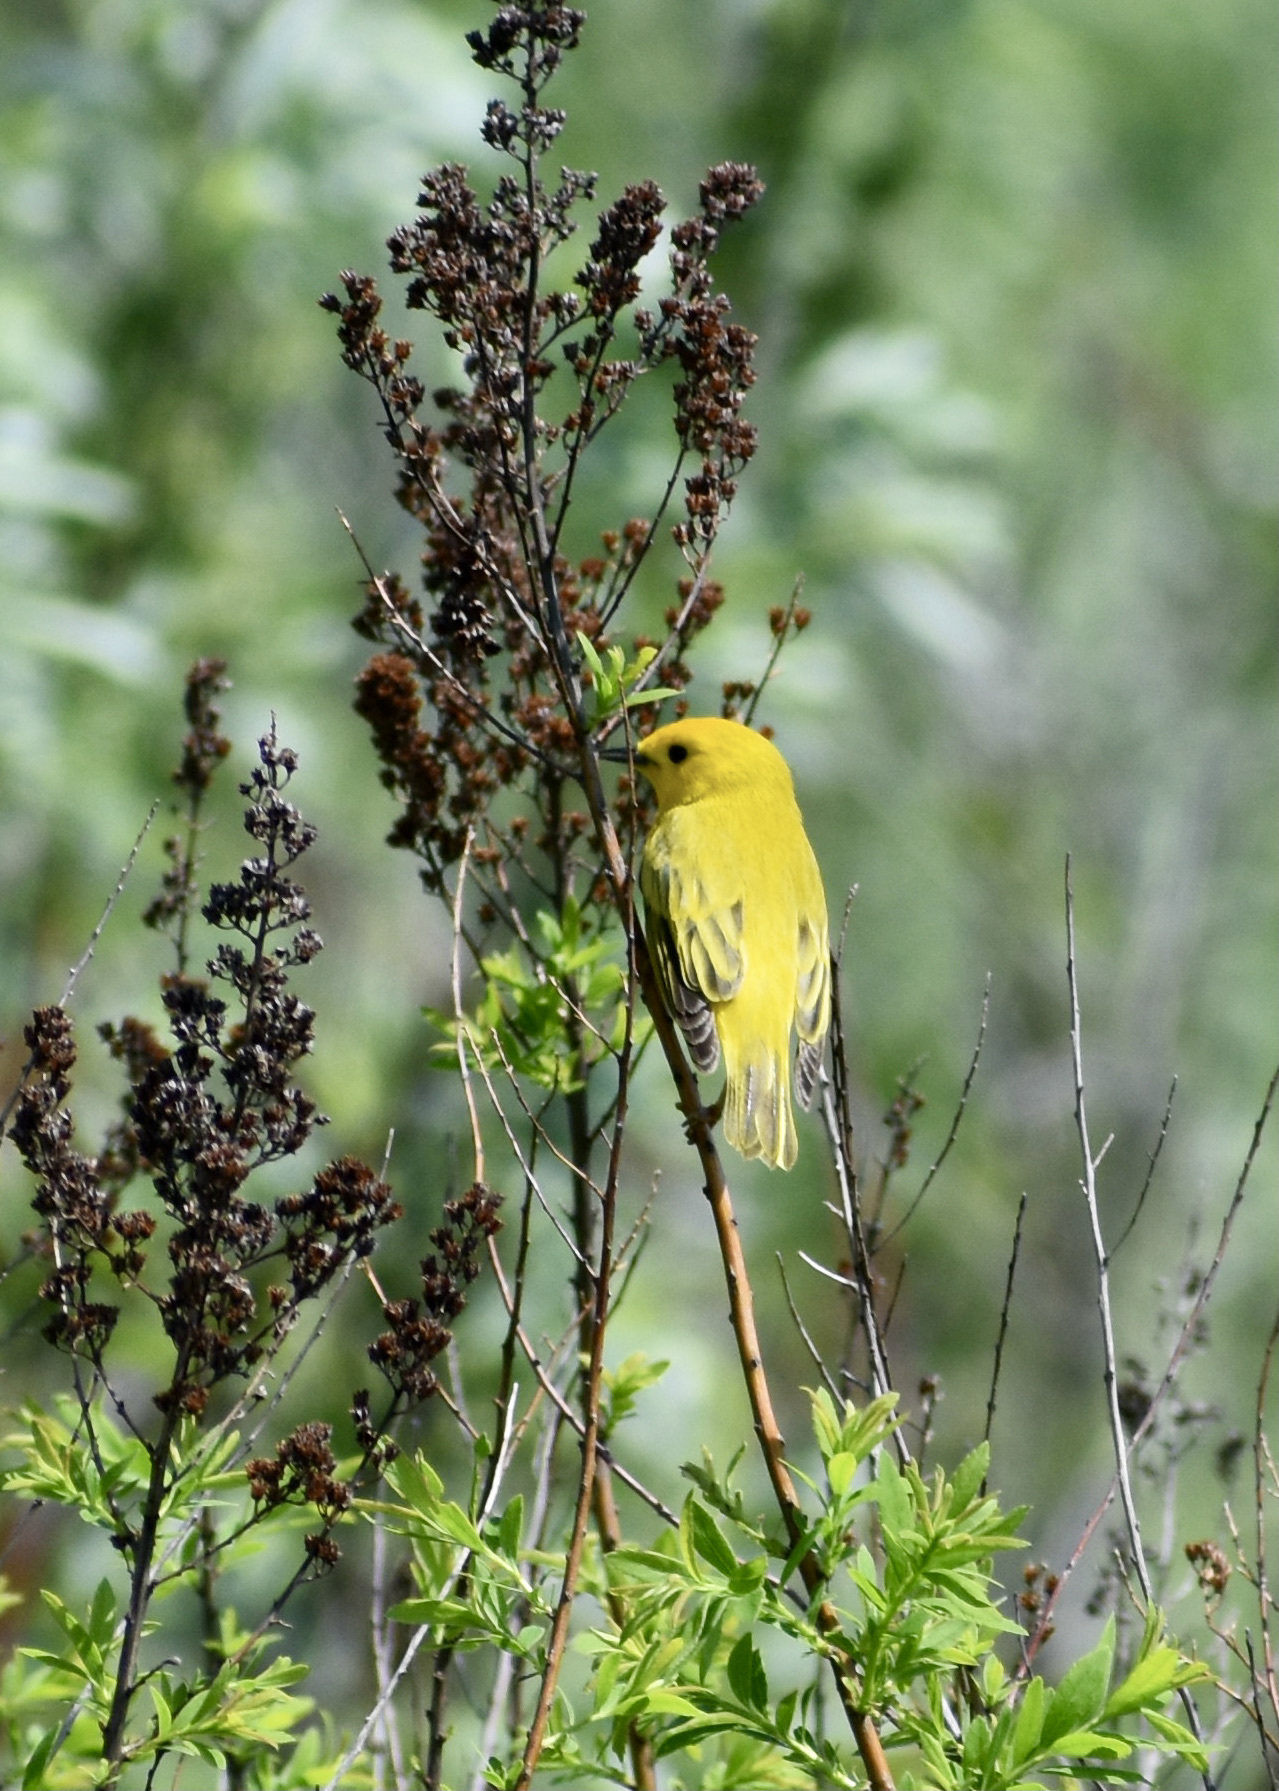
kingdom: Animalia
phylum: Chordata
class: Aves
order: Passeriformes
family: Parulidae
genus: Setophaga
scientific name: Setophaga petechia
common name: Yellow warbler
